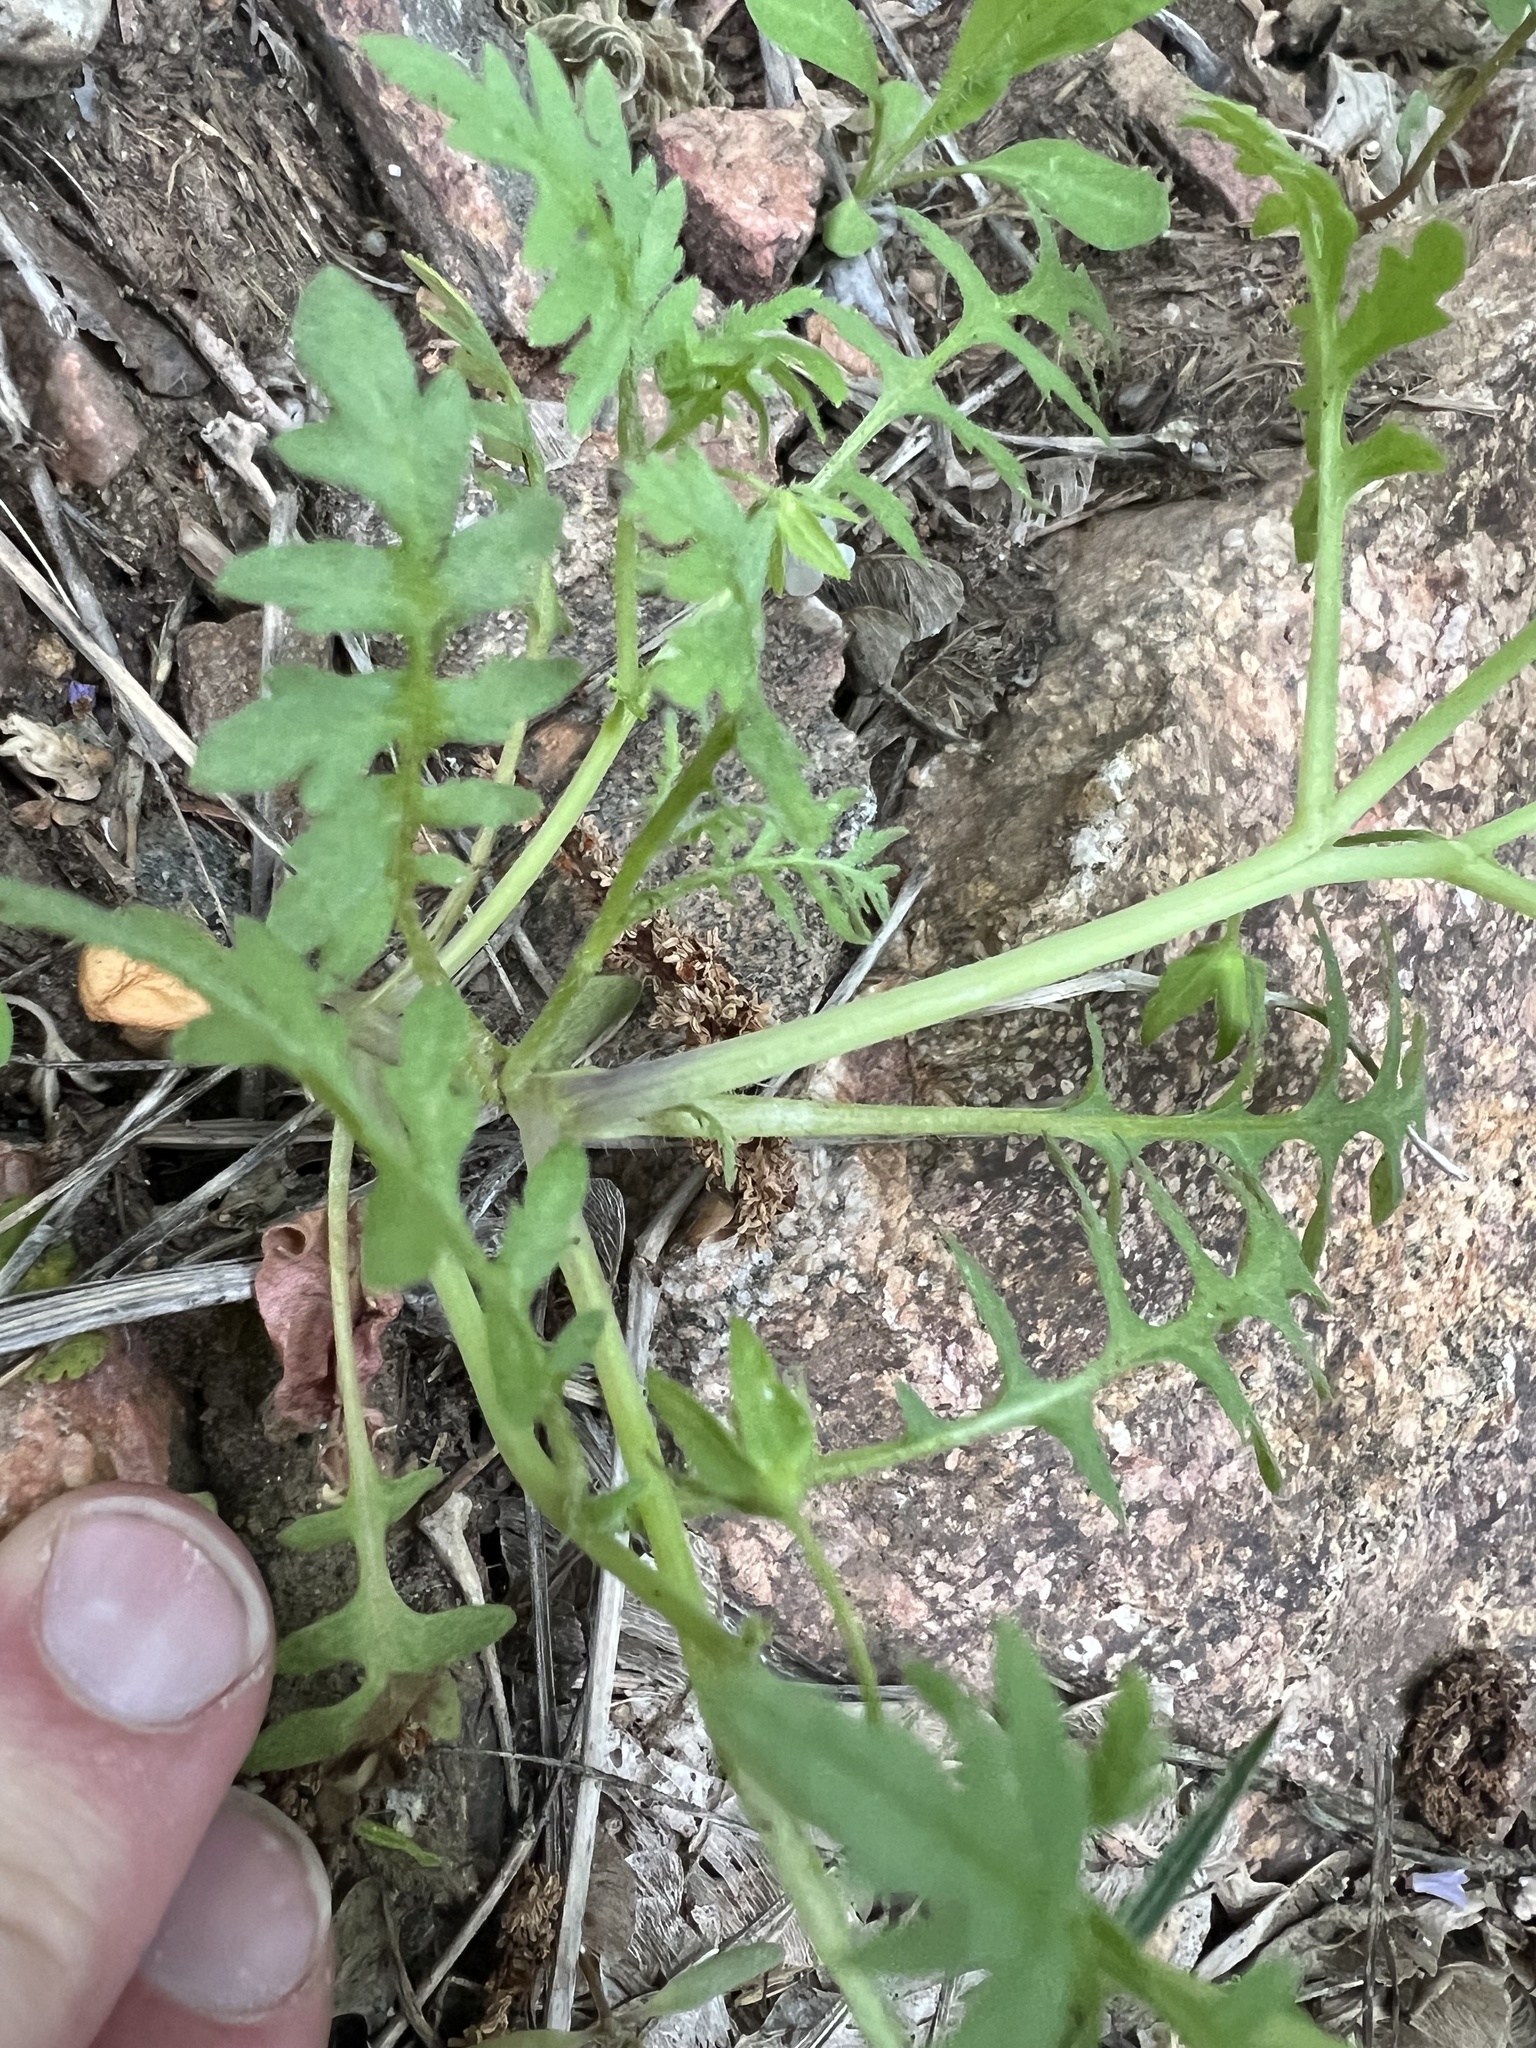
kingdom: Plantae
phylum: Tracheophyta
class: Magnoliopsida
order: Boraginales
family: Hydrophyllaceae
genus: Ellisia
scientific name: Ellisia nyctelea
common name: Aunt lucy
